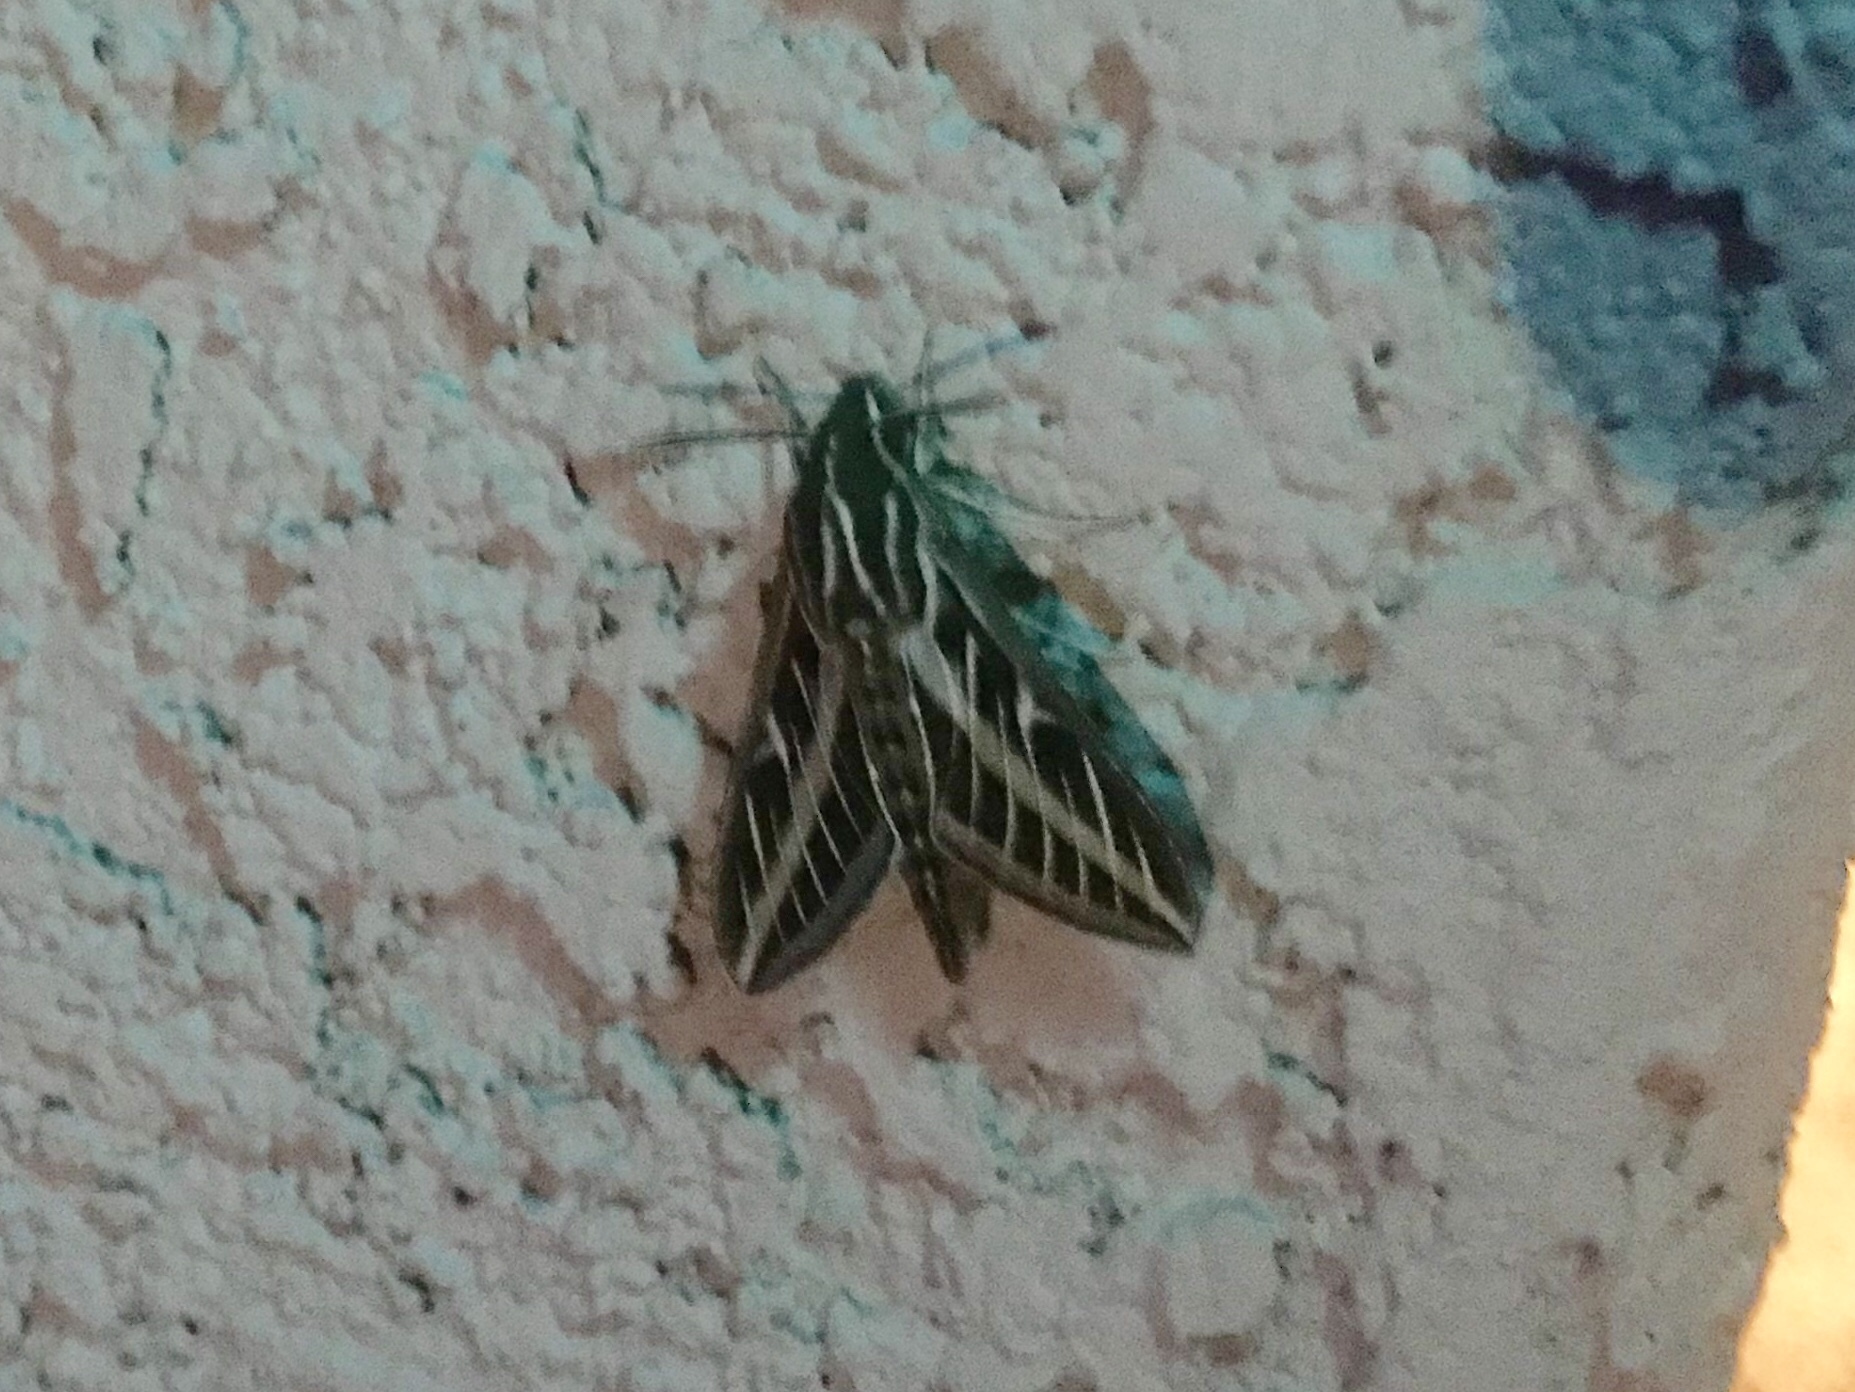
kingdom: Animalia
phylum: Arthropoda
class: Insecta
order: Lepidoptera
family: Sphingidae
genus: Hyles
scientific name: Hyles lineata
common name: White-lined sphinx
